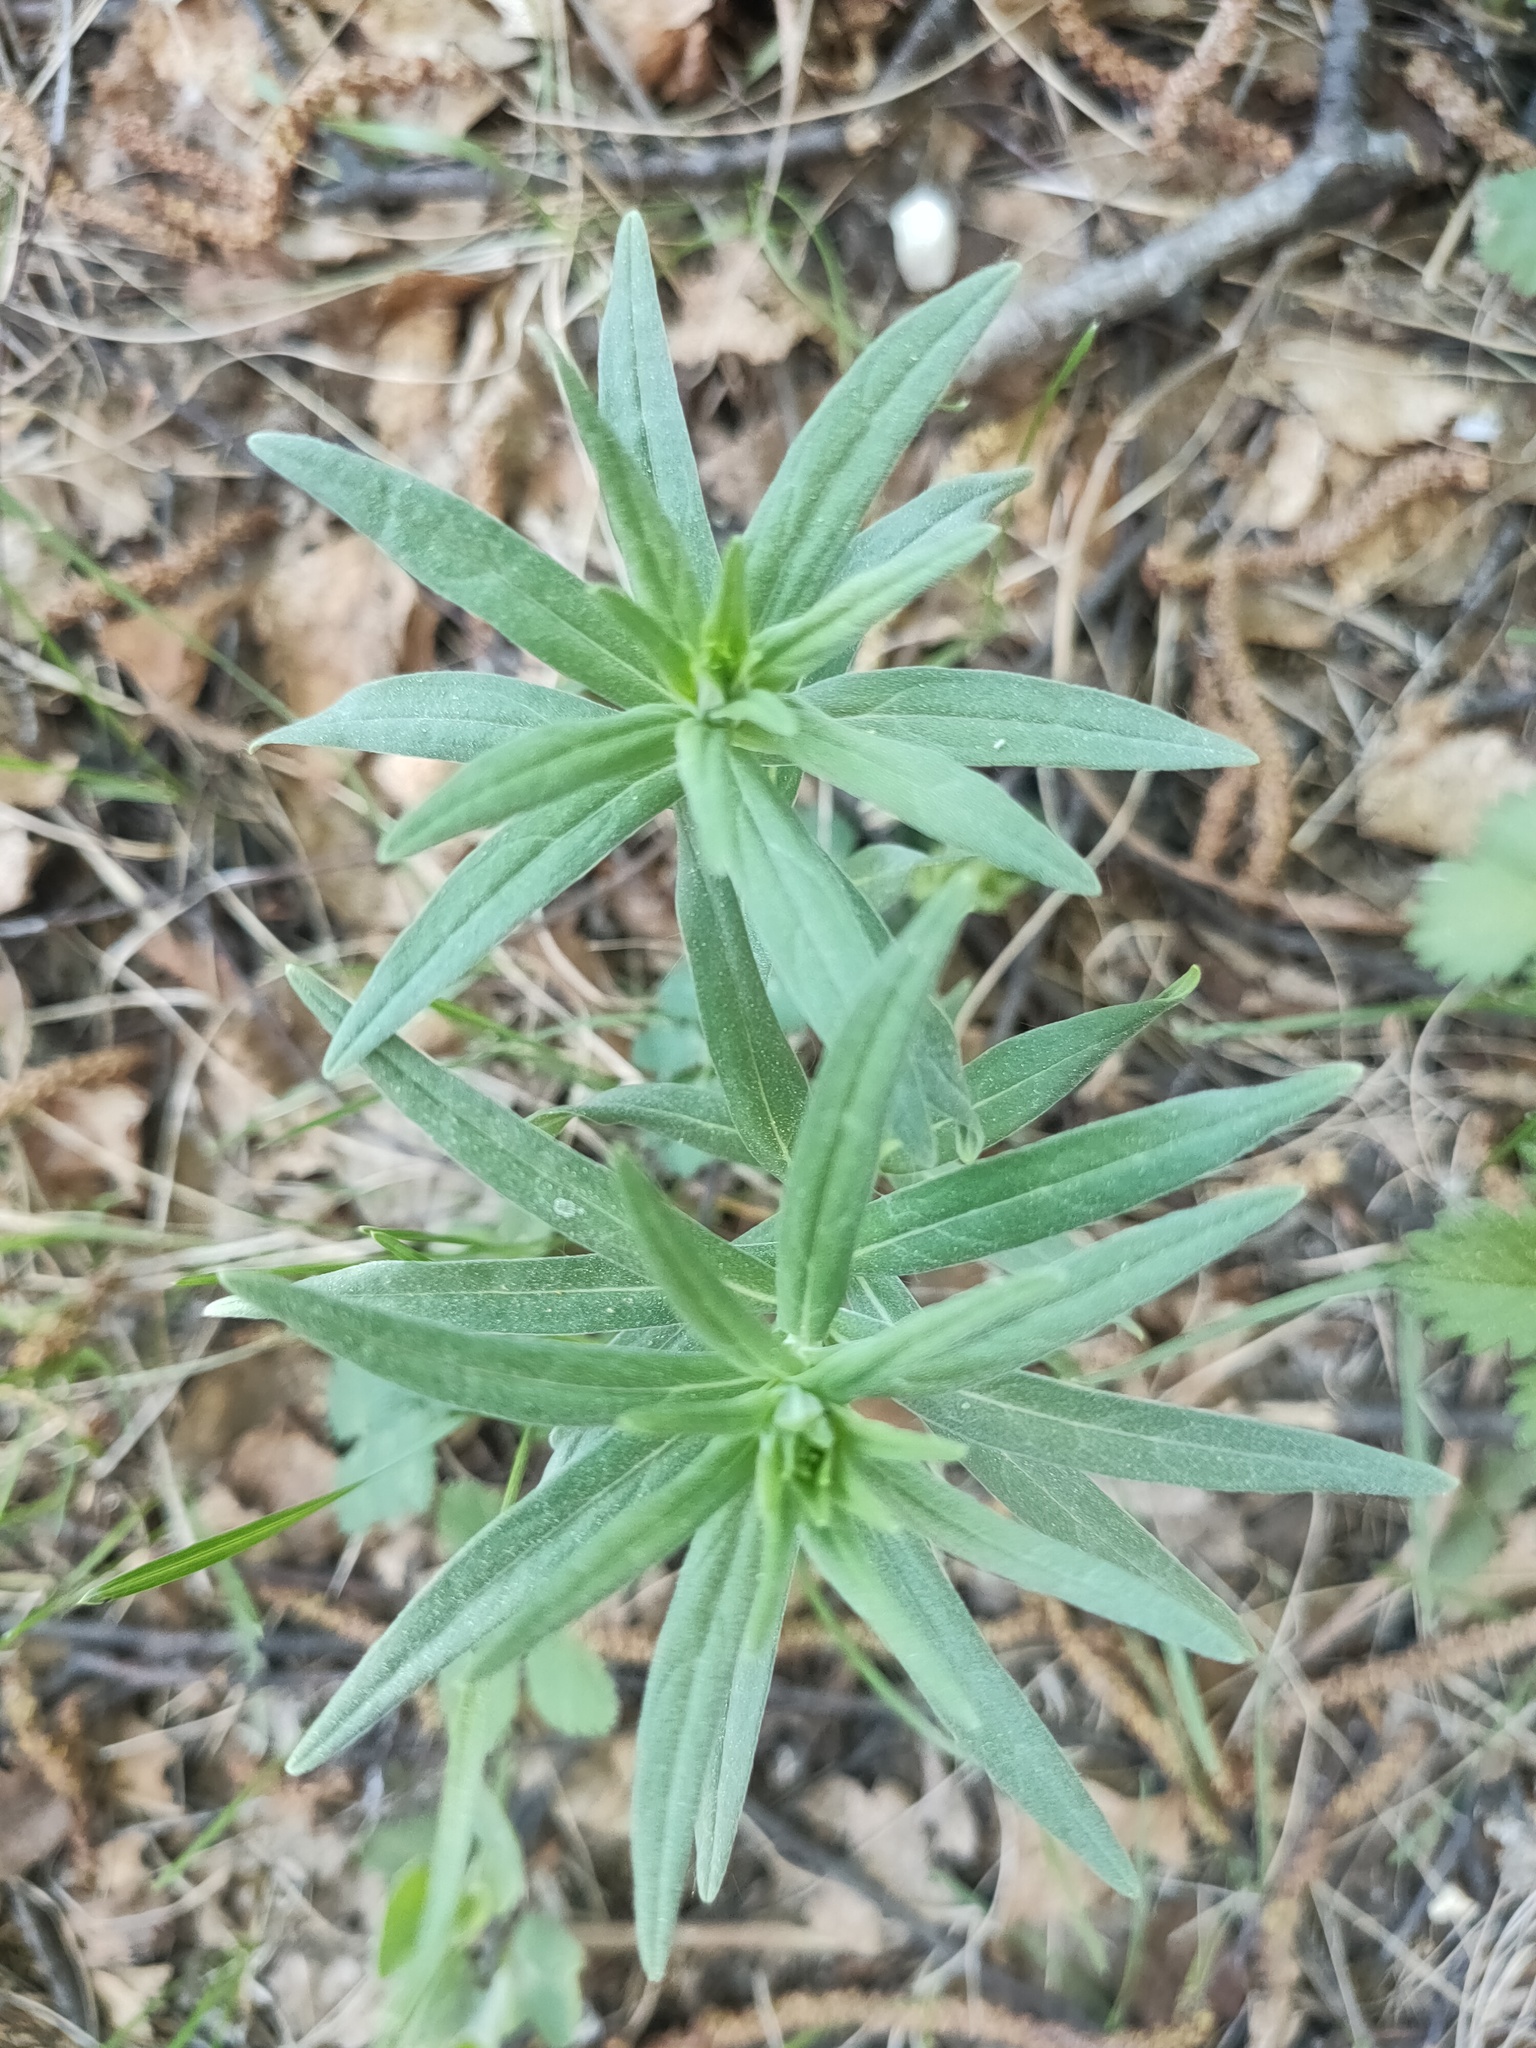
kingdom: Plantae
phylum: Tracheophyta
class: Magnoliopsida
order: Boraginales
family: Boraginaceae
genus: Lithospermum
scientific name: Lithospermum officinale
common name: Common gromwell
